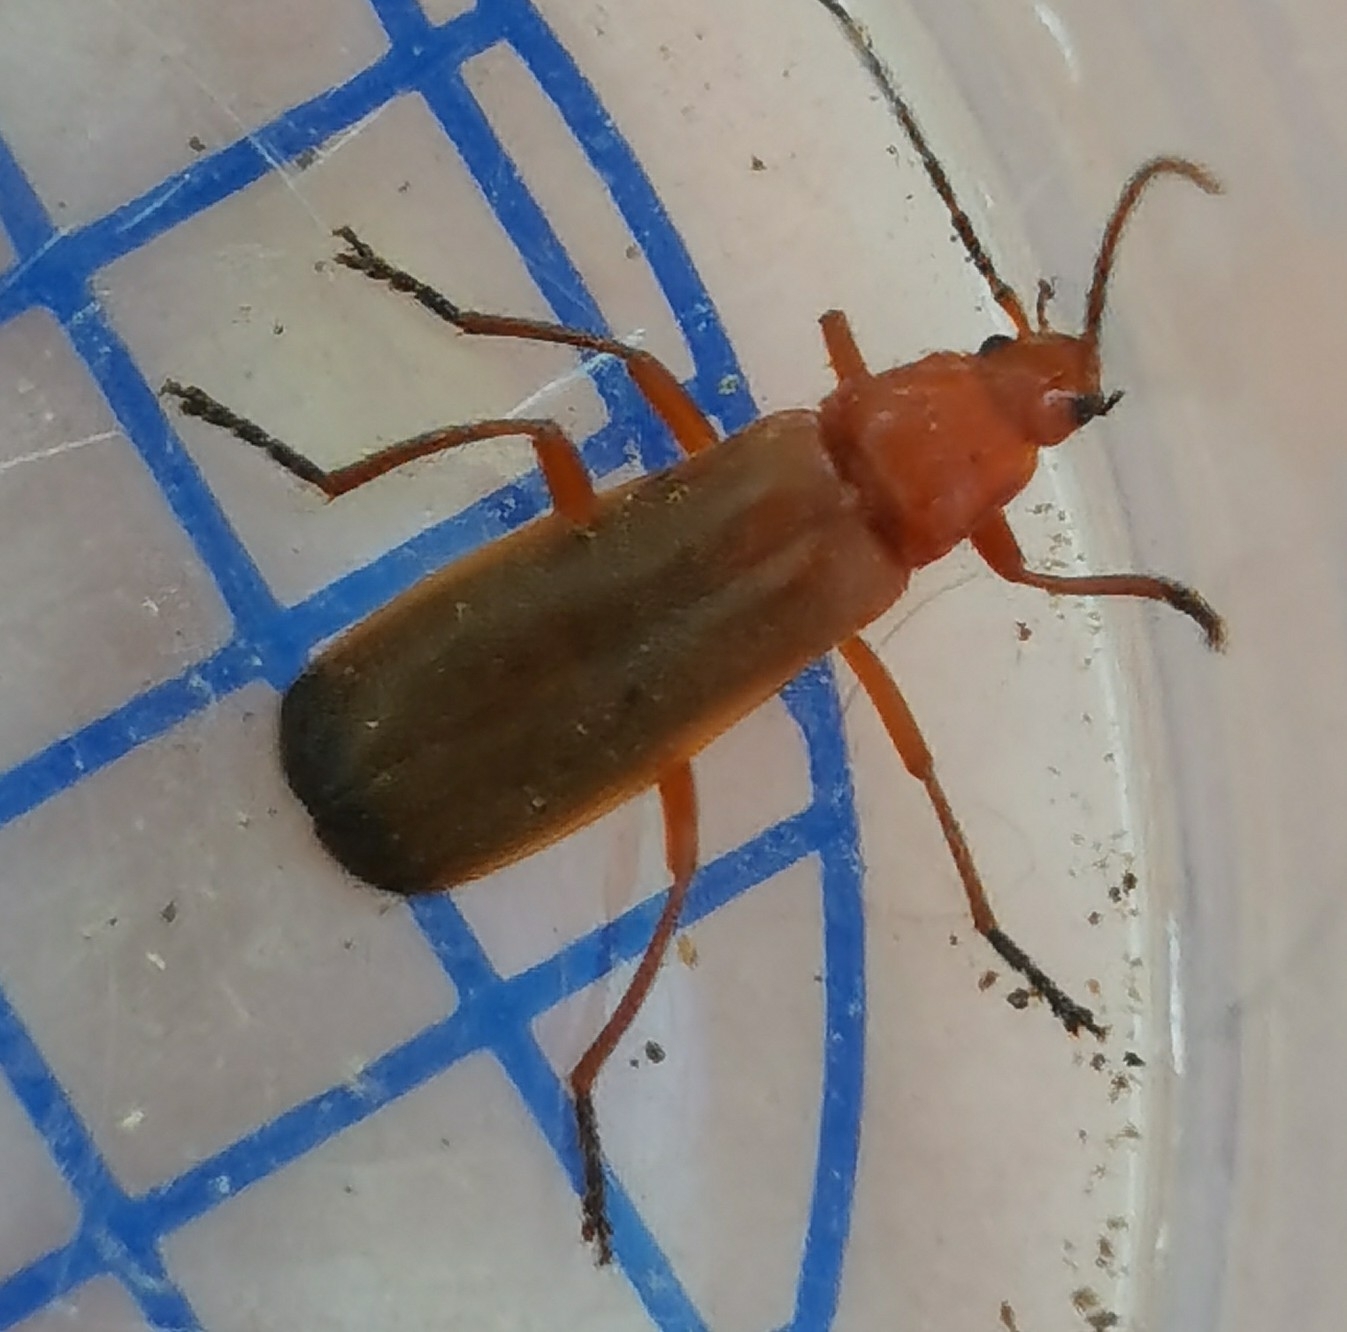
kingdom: Animalia
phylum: Arthropoda
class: Insecta
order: Coleoptera
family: Cantharidae
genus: Rhagonycha
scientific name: Rhagonycha fulva
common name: Common red soldier beetle
